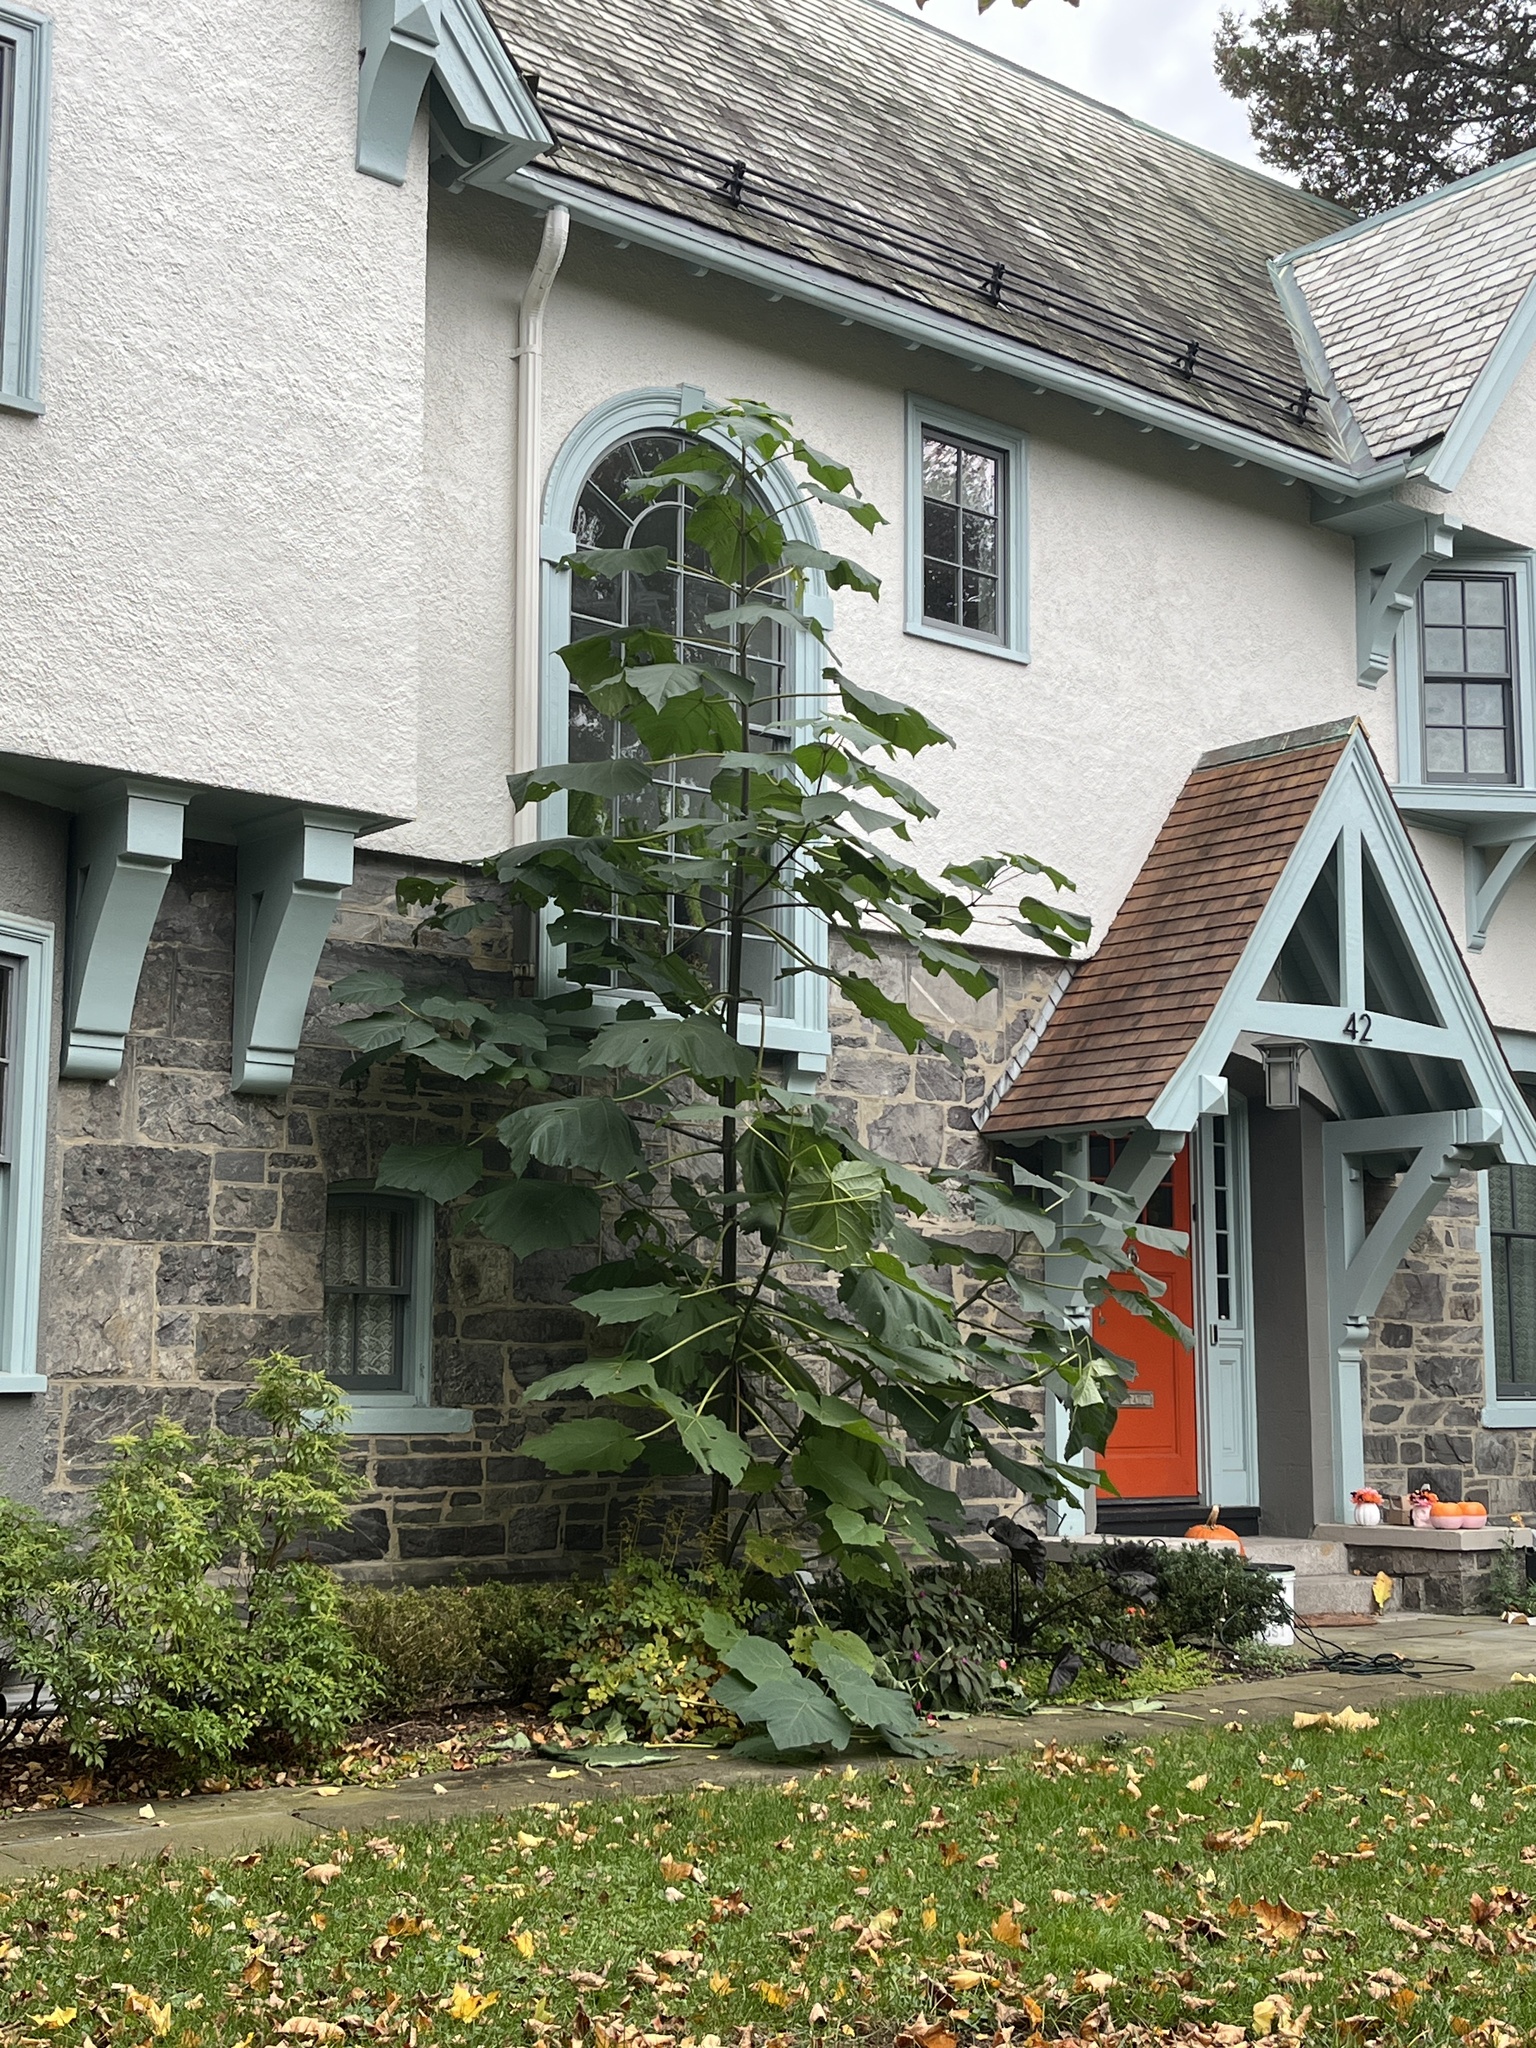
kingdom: Plantae
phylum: Tracheophyta
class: Magnoliopsida
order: Lamiales
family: Paulowniaceae
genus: Paulownia
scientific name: Paulownia tomentosa
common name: Foxglove-tree
